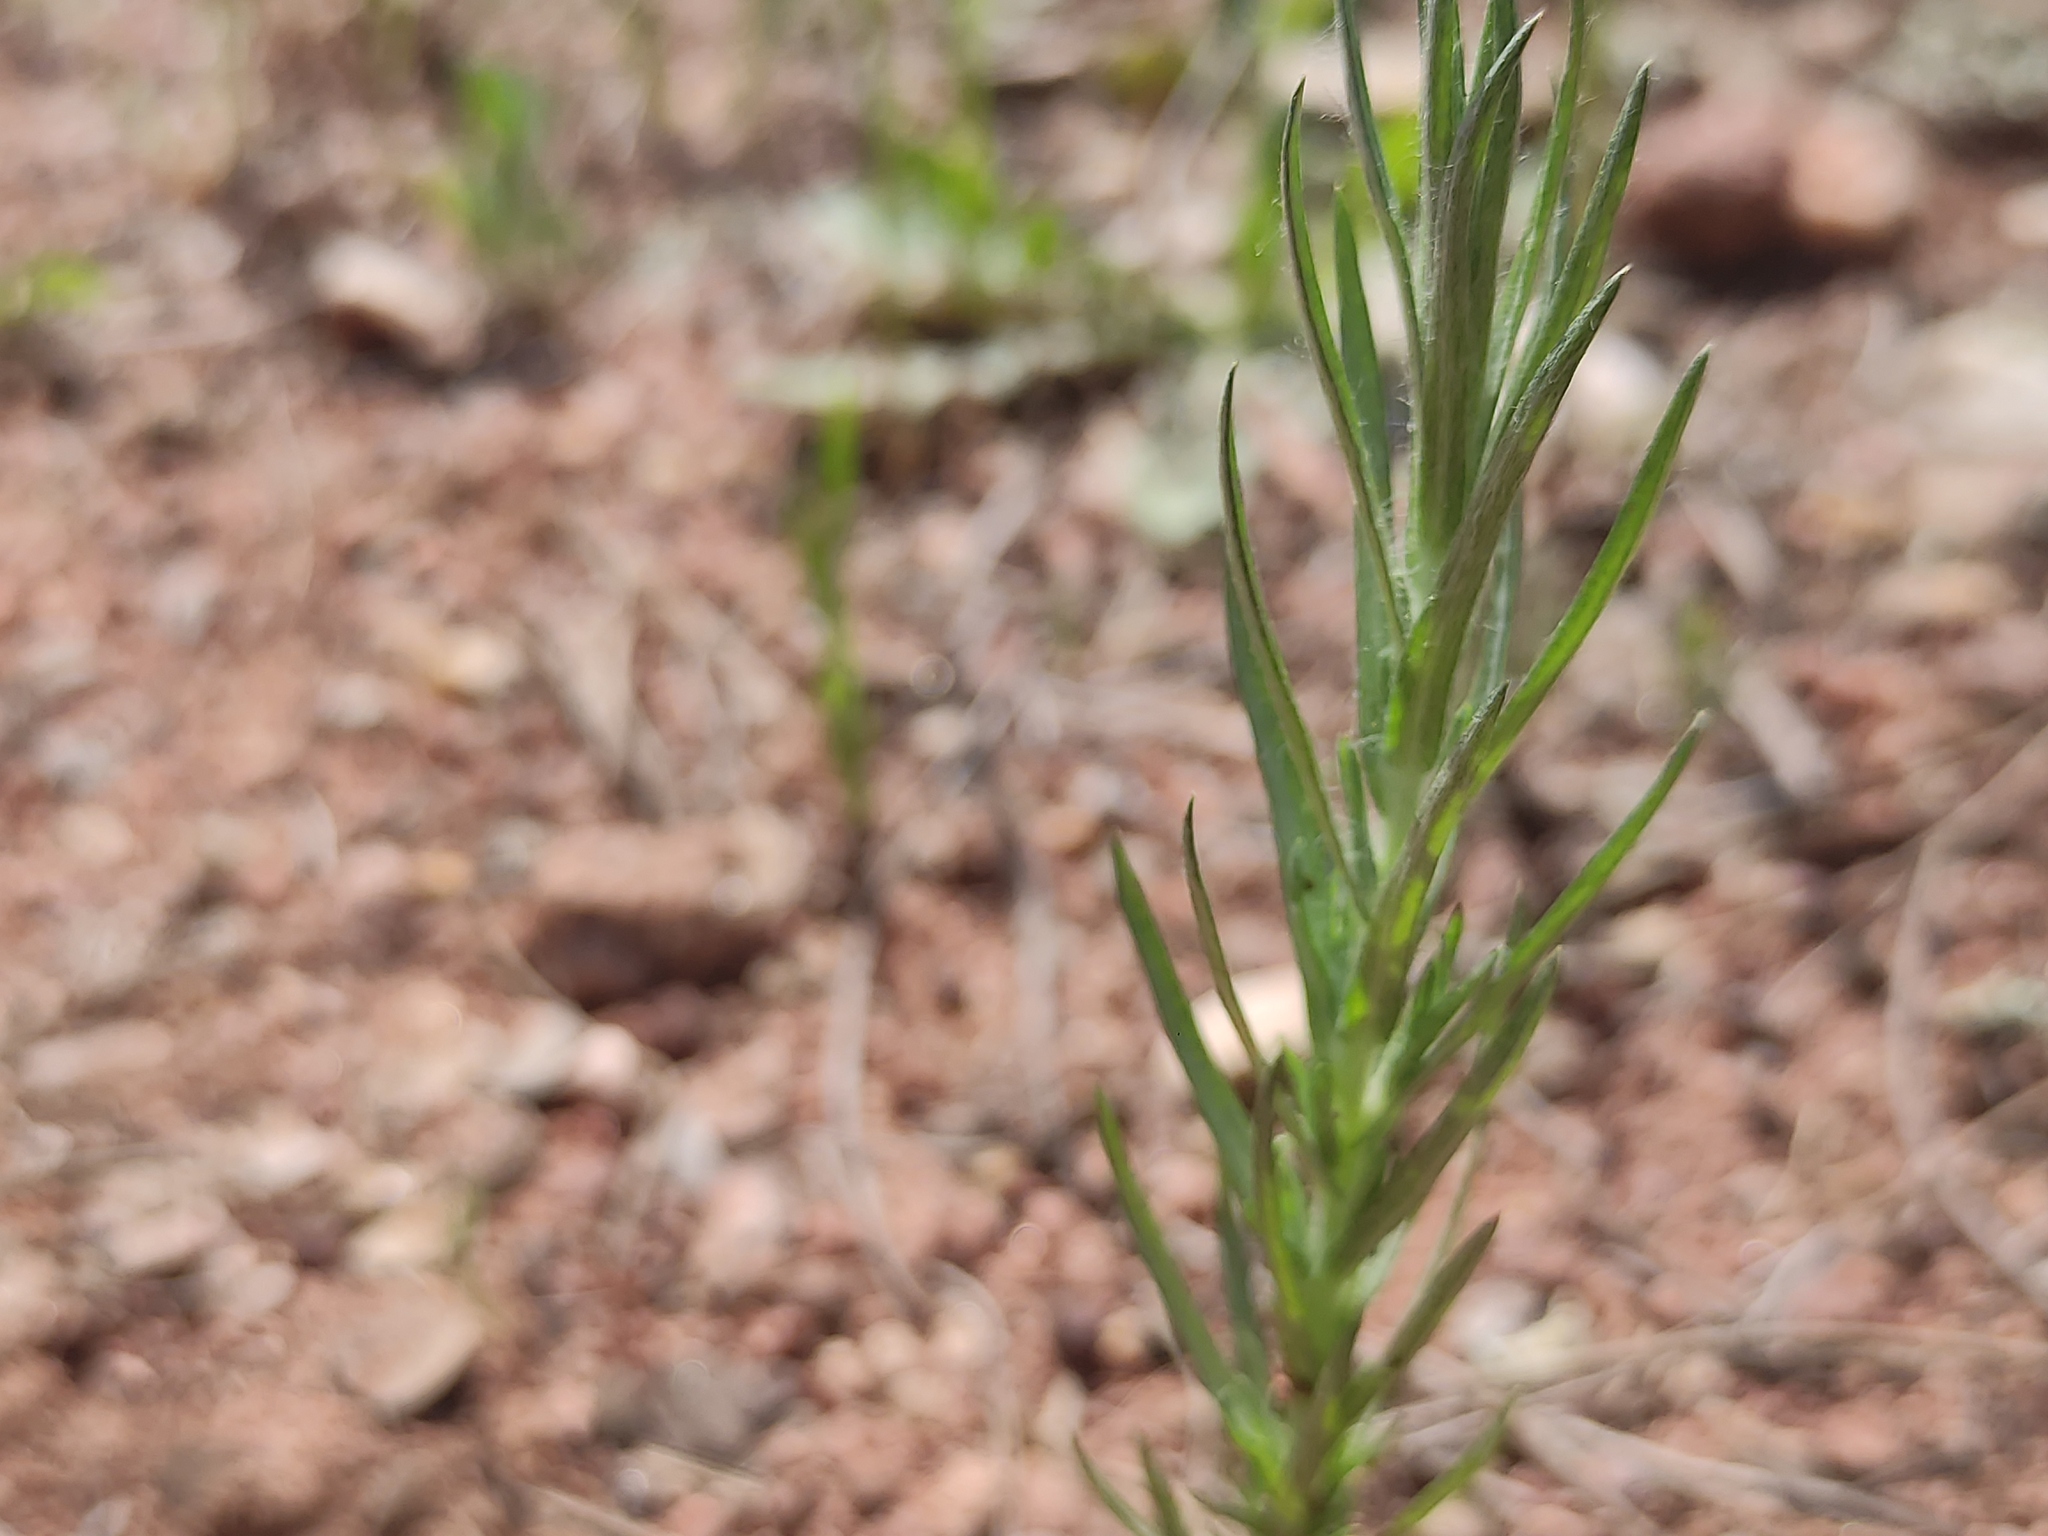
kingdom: Plantae
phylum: Tracheophyta
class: Magnoliopsida
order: Asterales
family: Asteraceae
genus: Logfia
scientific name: Logfia gallica
